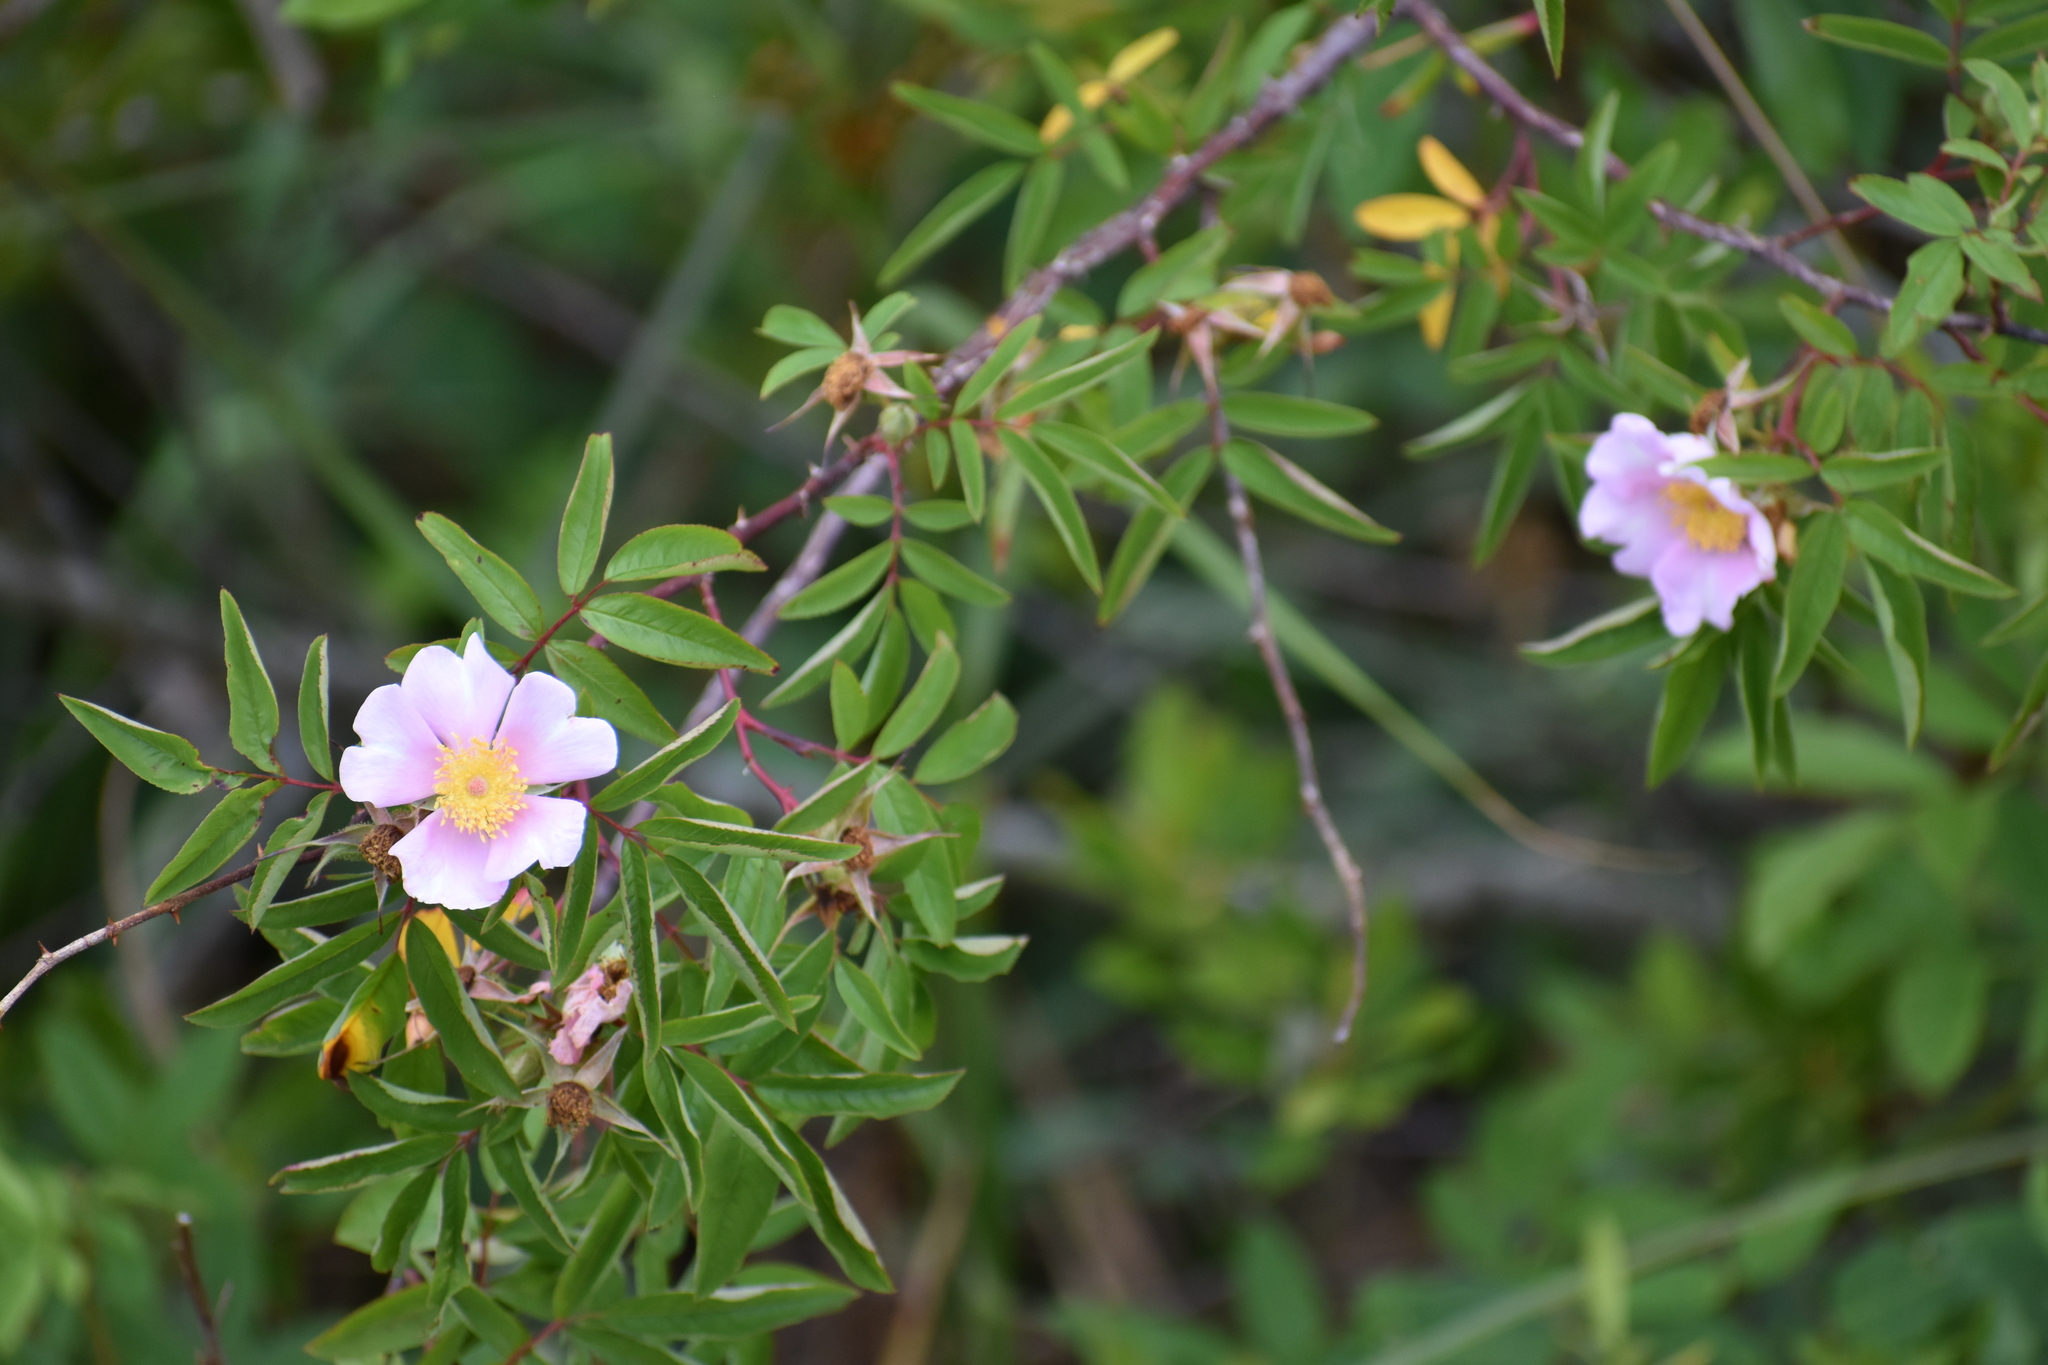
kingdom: Plantae
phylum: Tracheophyta
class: Magnoliopsida
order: Rosales
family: Rosaceae
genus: Rosa
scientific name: Rosa palustris
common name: Swamp rose
